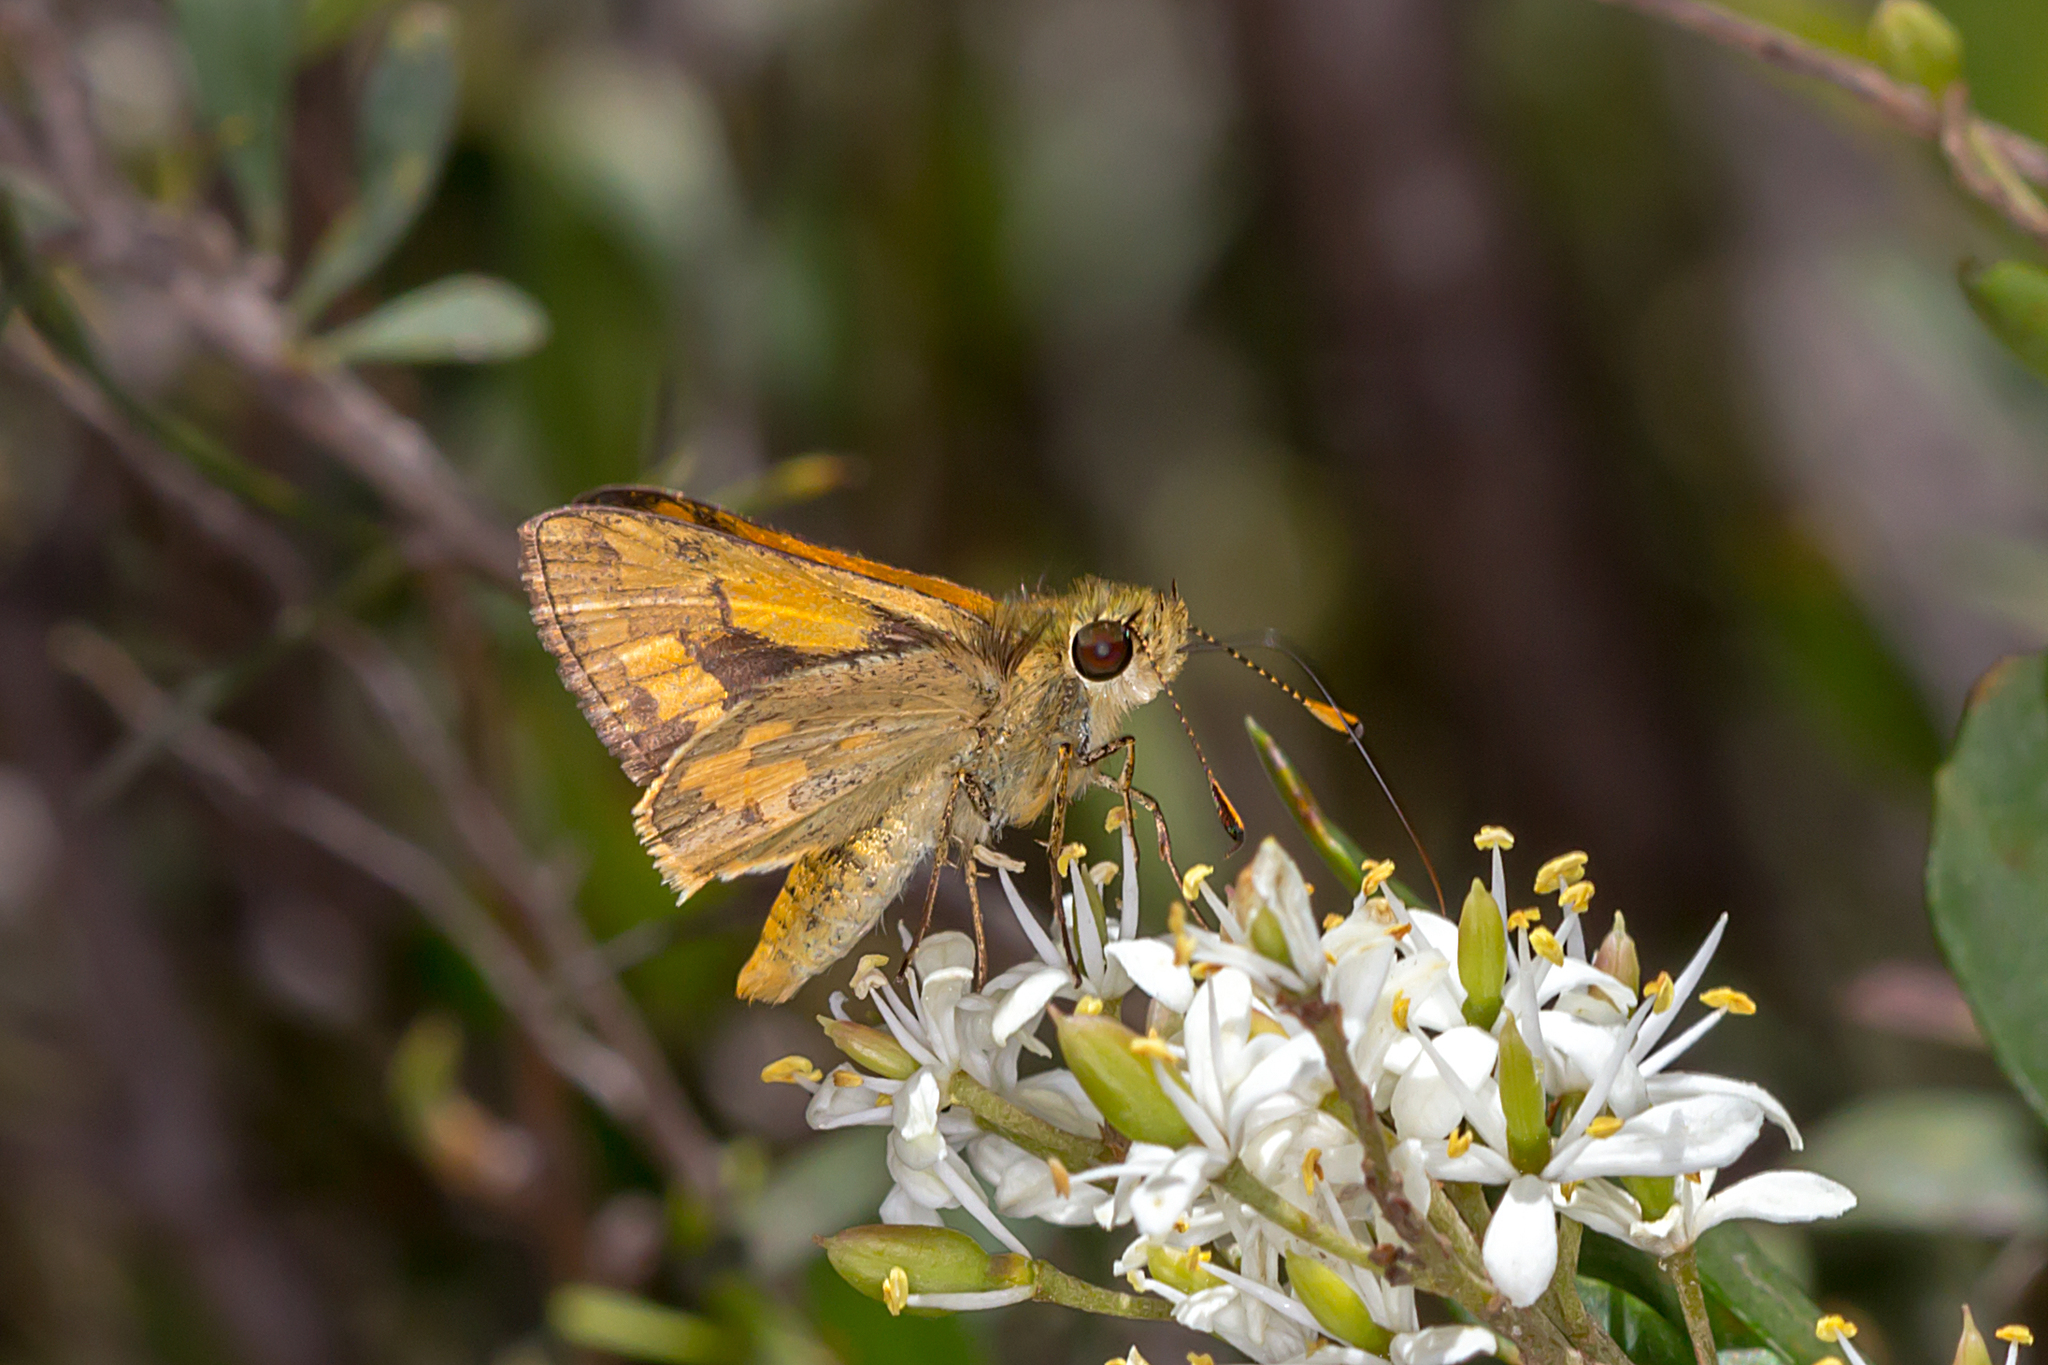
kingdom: Animalia
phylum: Arthropoda
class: Insecta
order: Lepidoptera
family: Hesperiidae
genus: Ocybadistes
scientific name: Ocybadistes walkeri
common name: Yellow-banded dart
